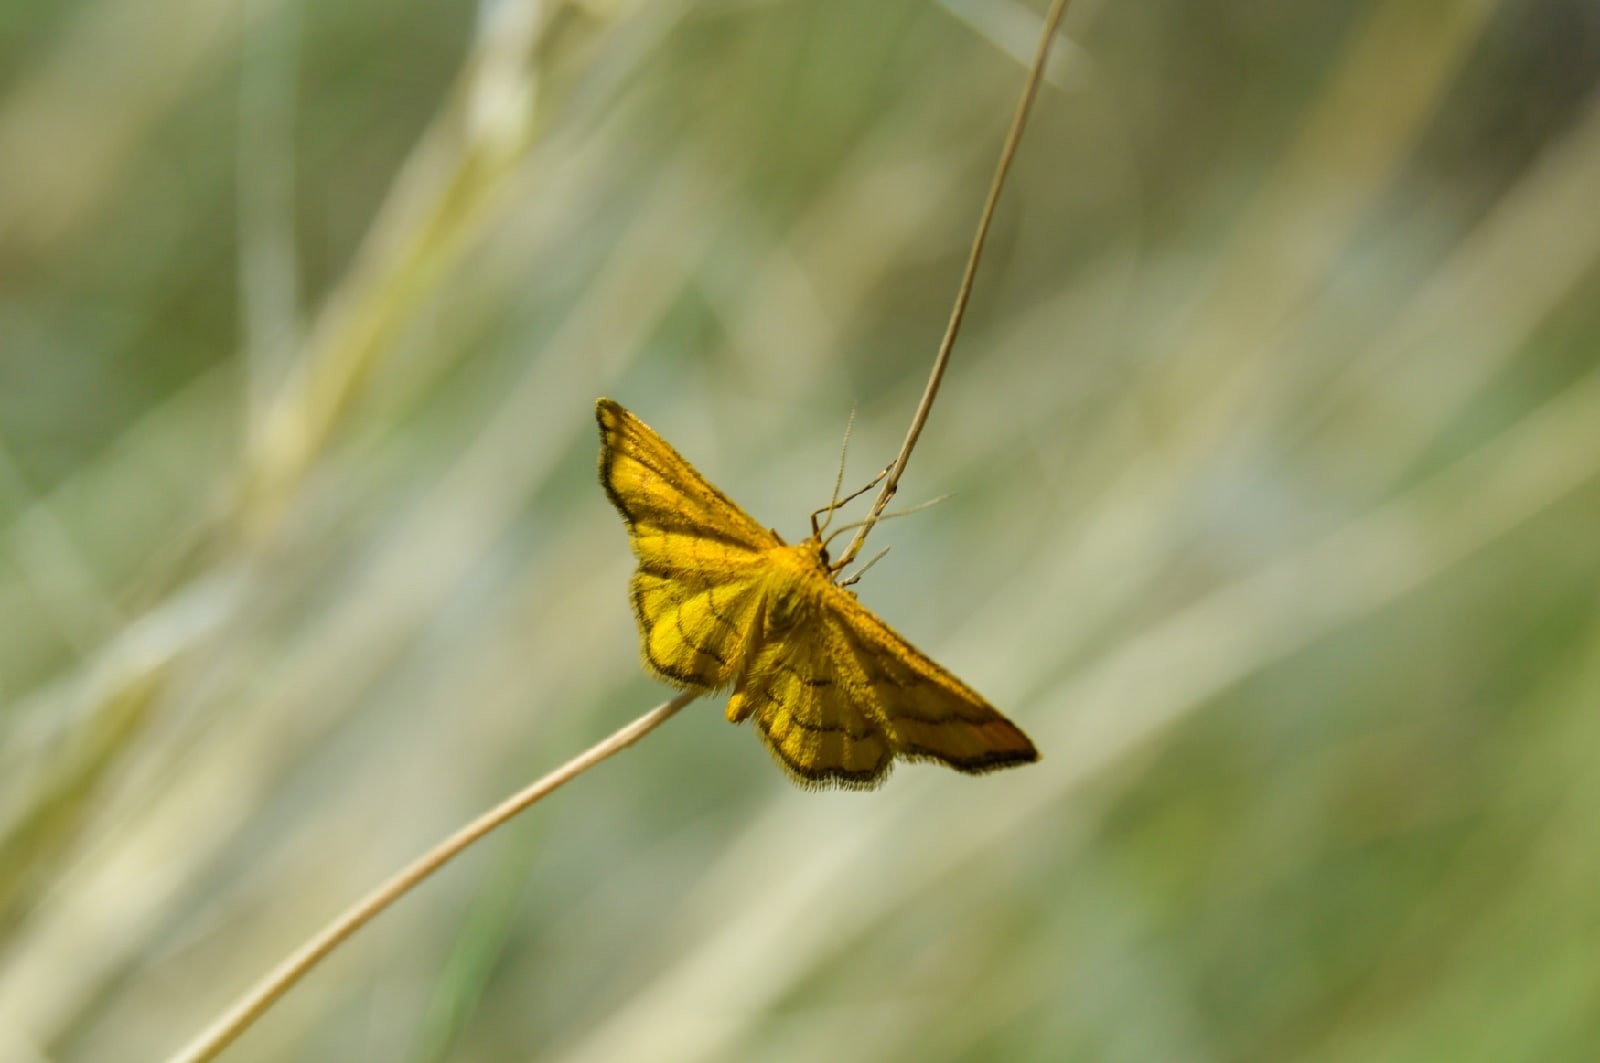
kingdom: Animalia
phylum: Arthropoda
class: Insecta
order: Lepidoptera
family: Geometridae
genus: Idaea
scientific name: Idaea aureolaria
